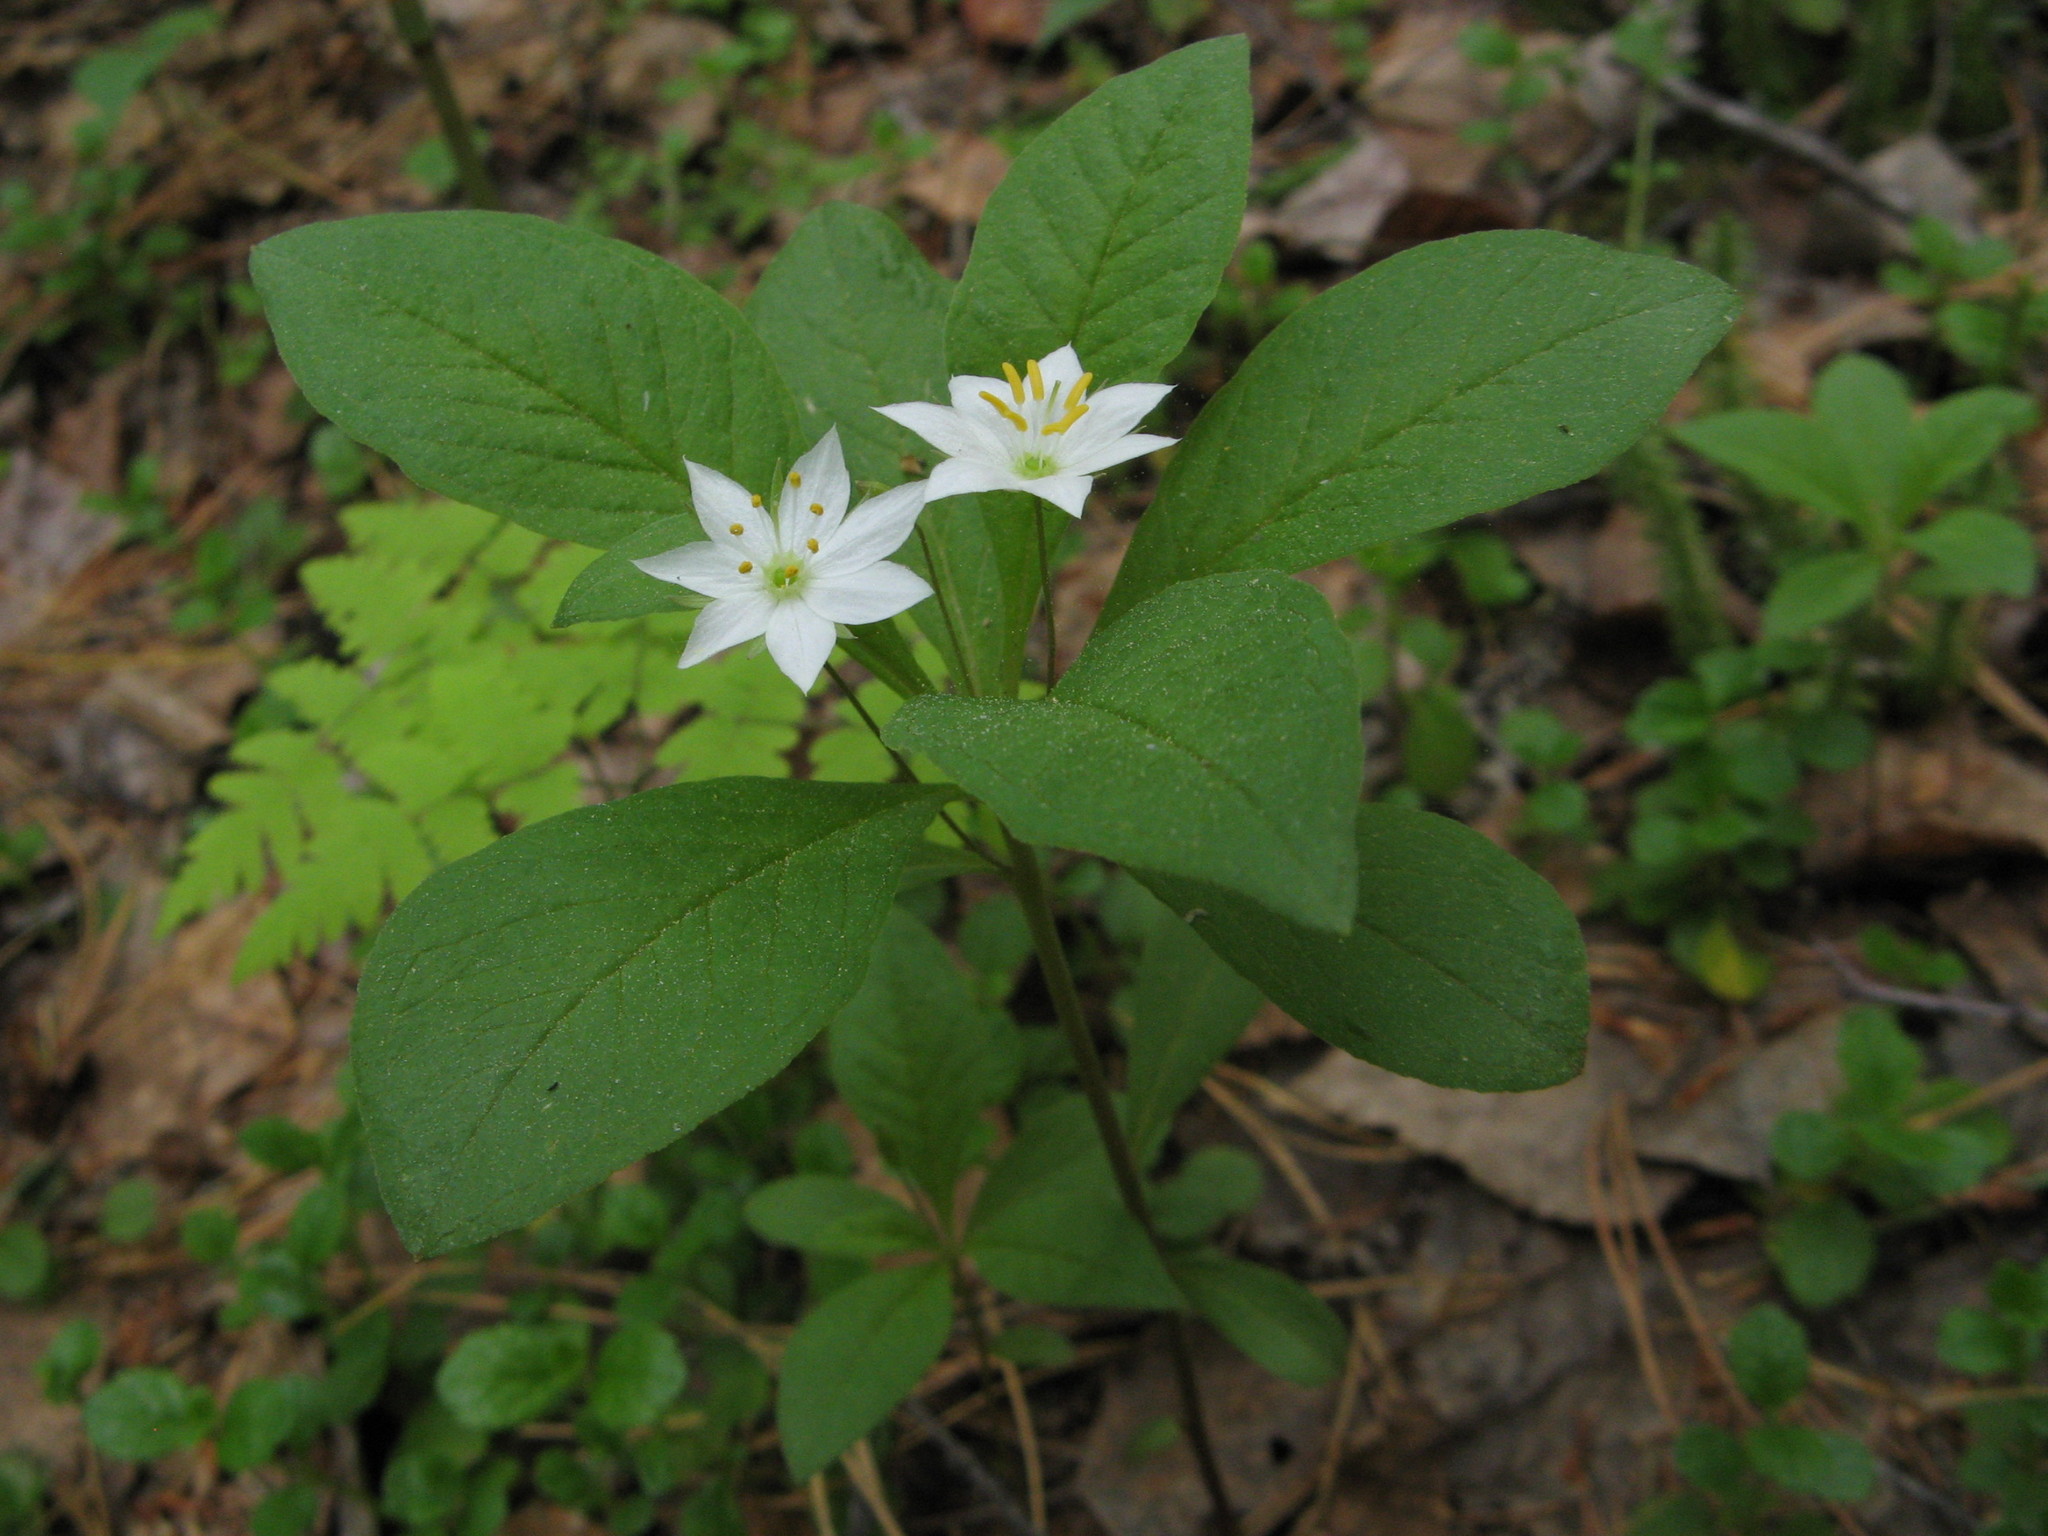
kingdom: Plantae
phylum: Tracheophyta
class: Magnoliopsida
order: Ericales
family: Primulaceae
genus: Lysimachia
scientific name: Lysimachia europaea
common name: Arctic starflower
